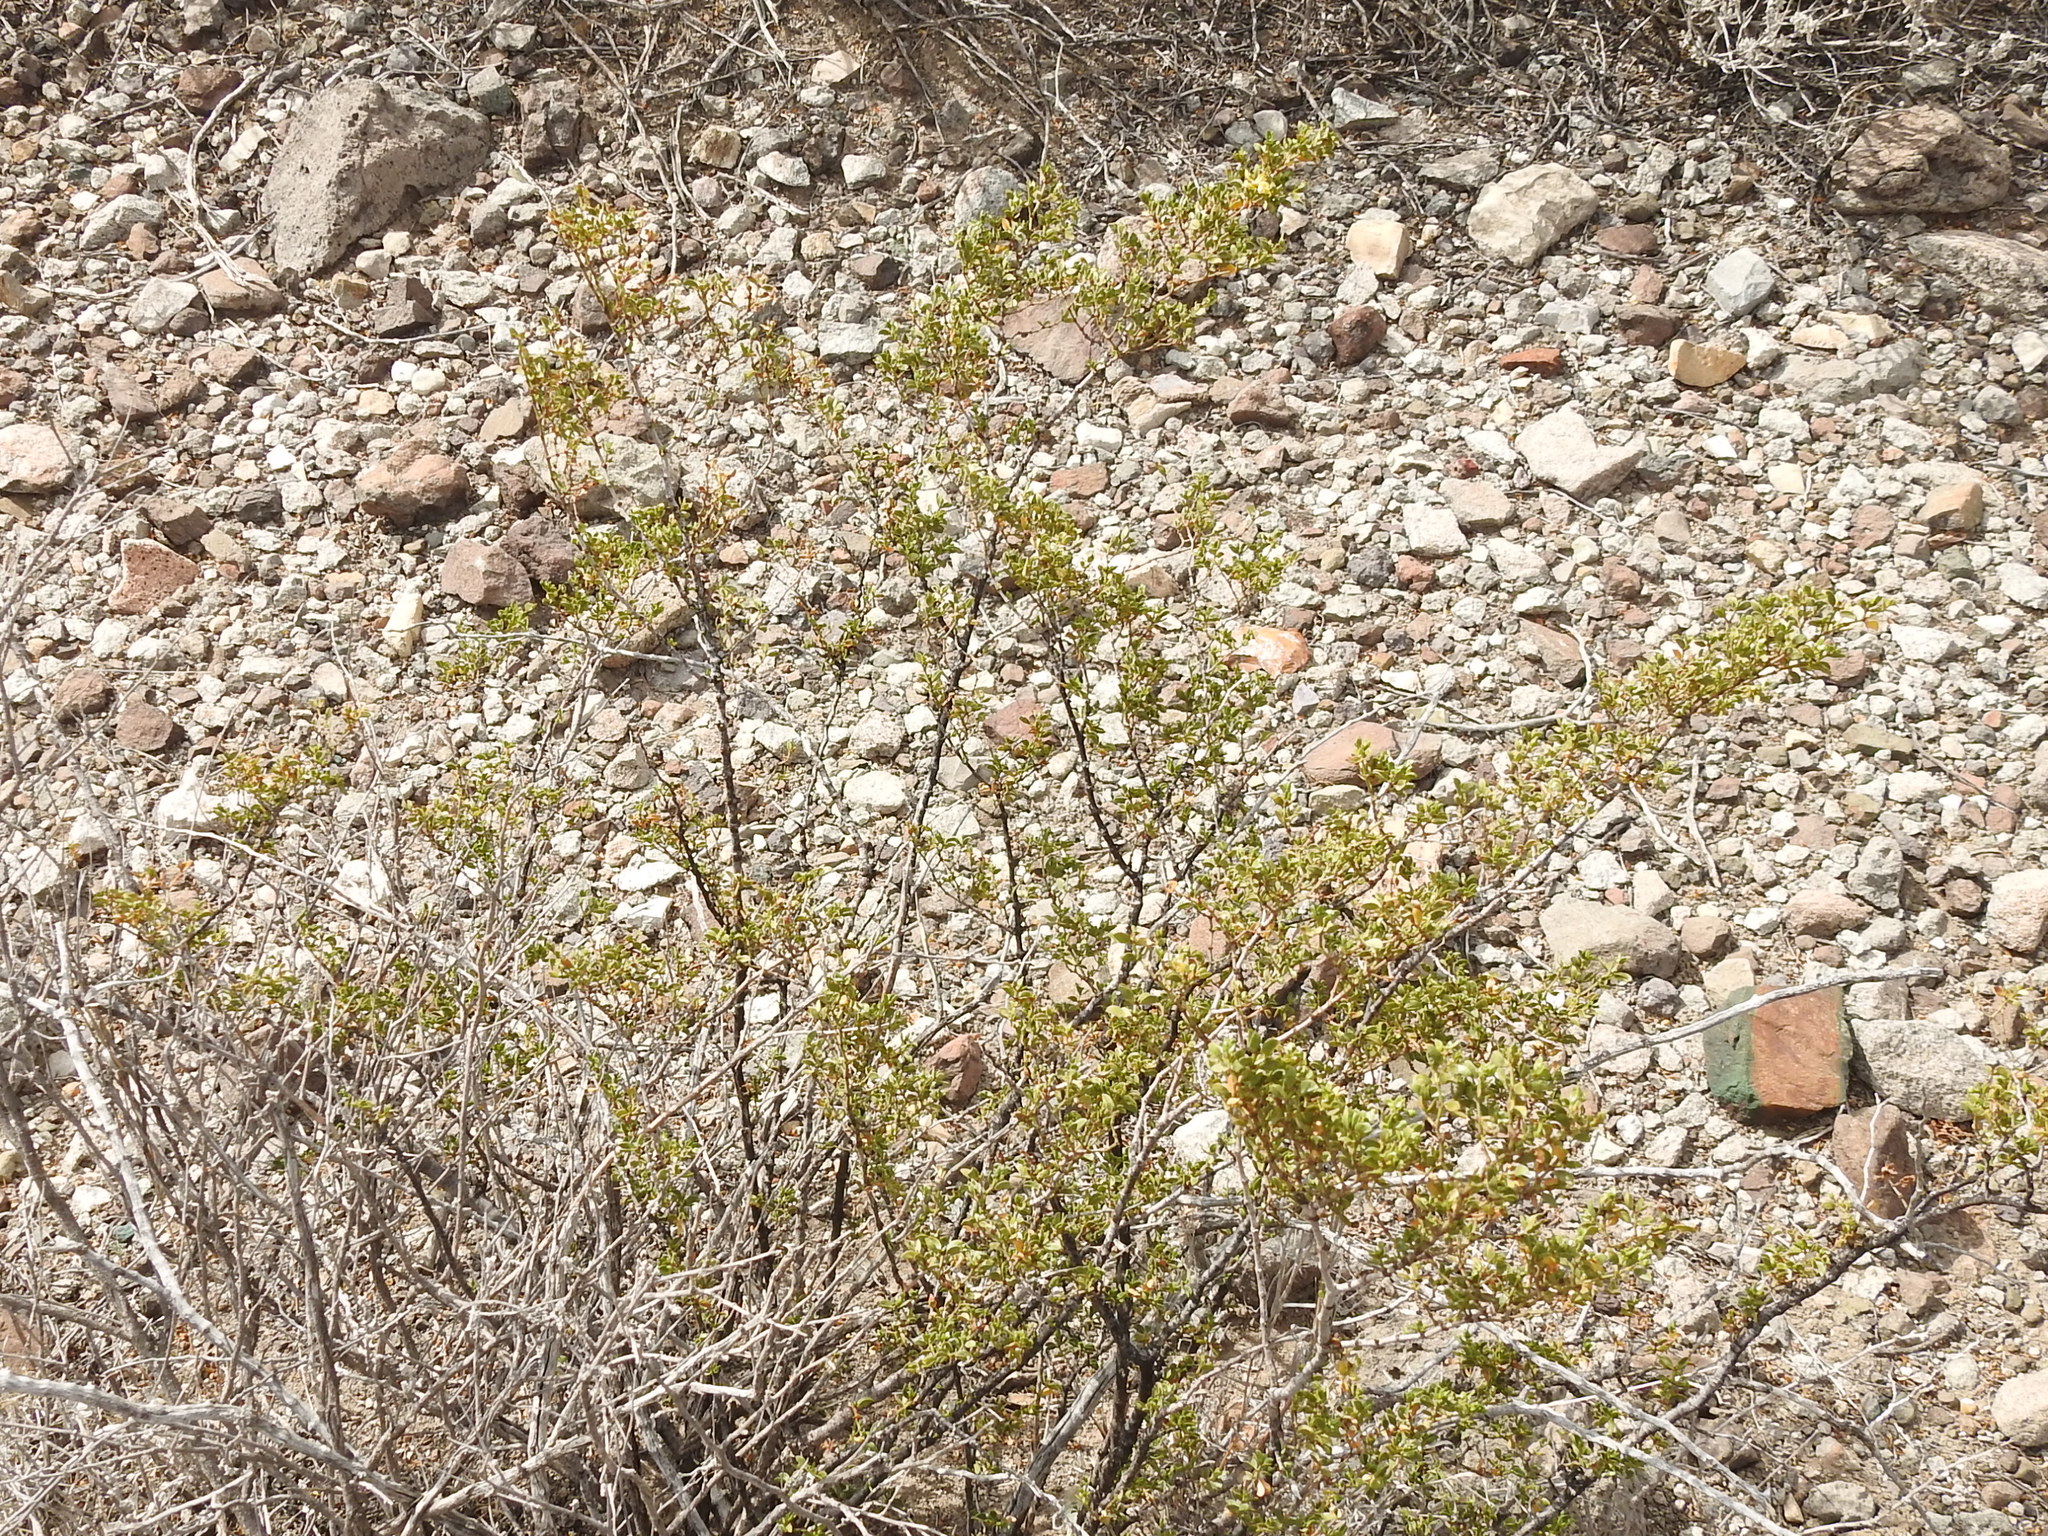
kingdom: Plantae
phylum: Tracheophyta
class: Magnoliopsida
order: Zygophyllales
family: Zygophyllaceae
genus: Larrea
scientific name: Larrea tridentata
